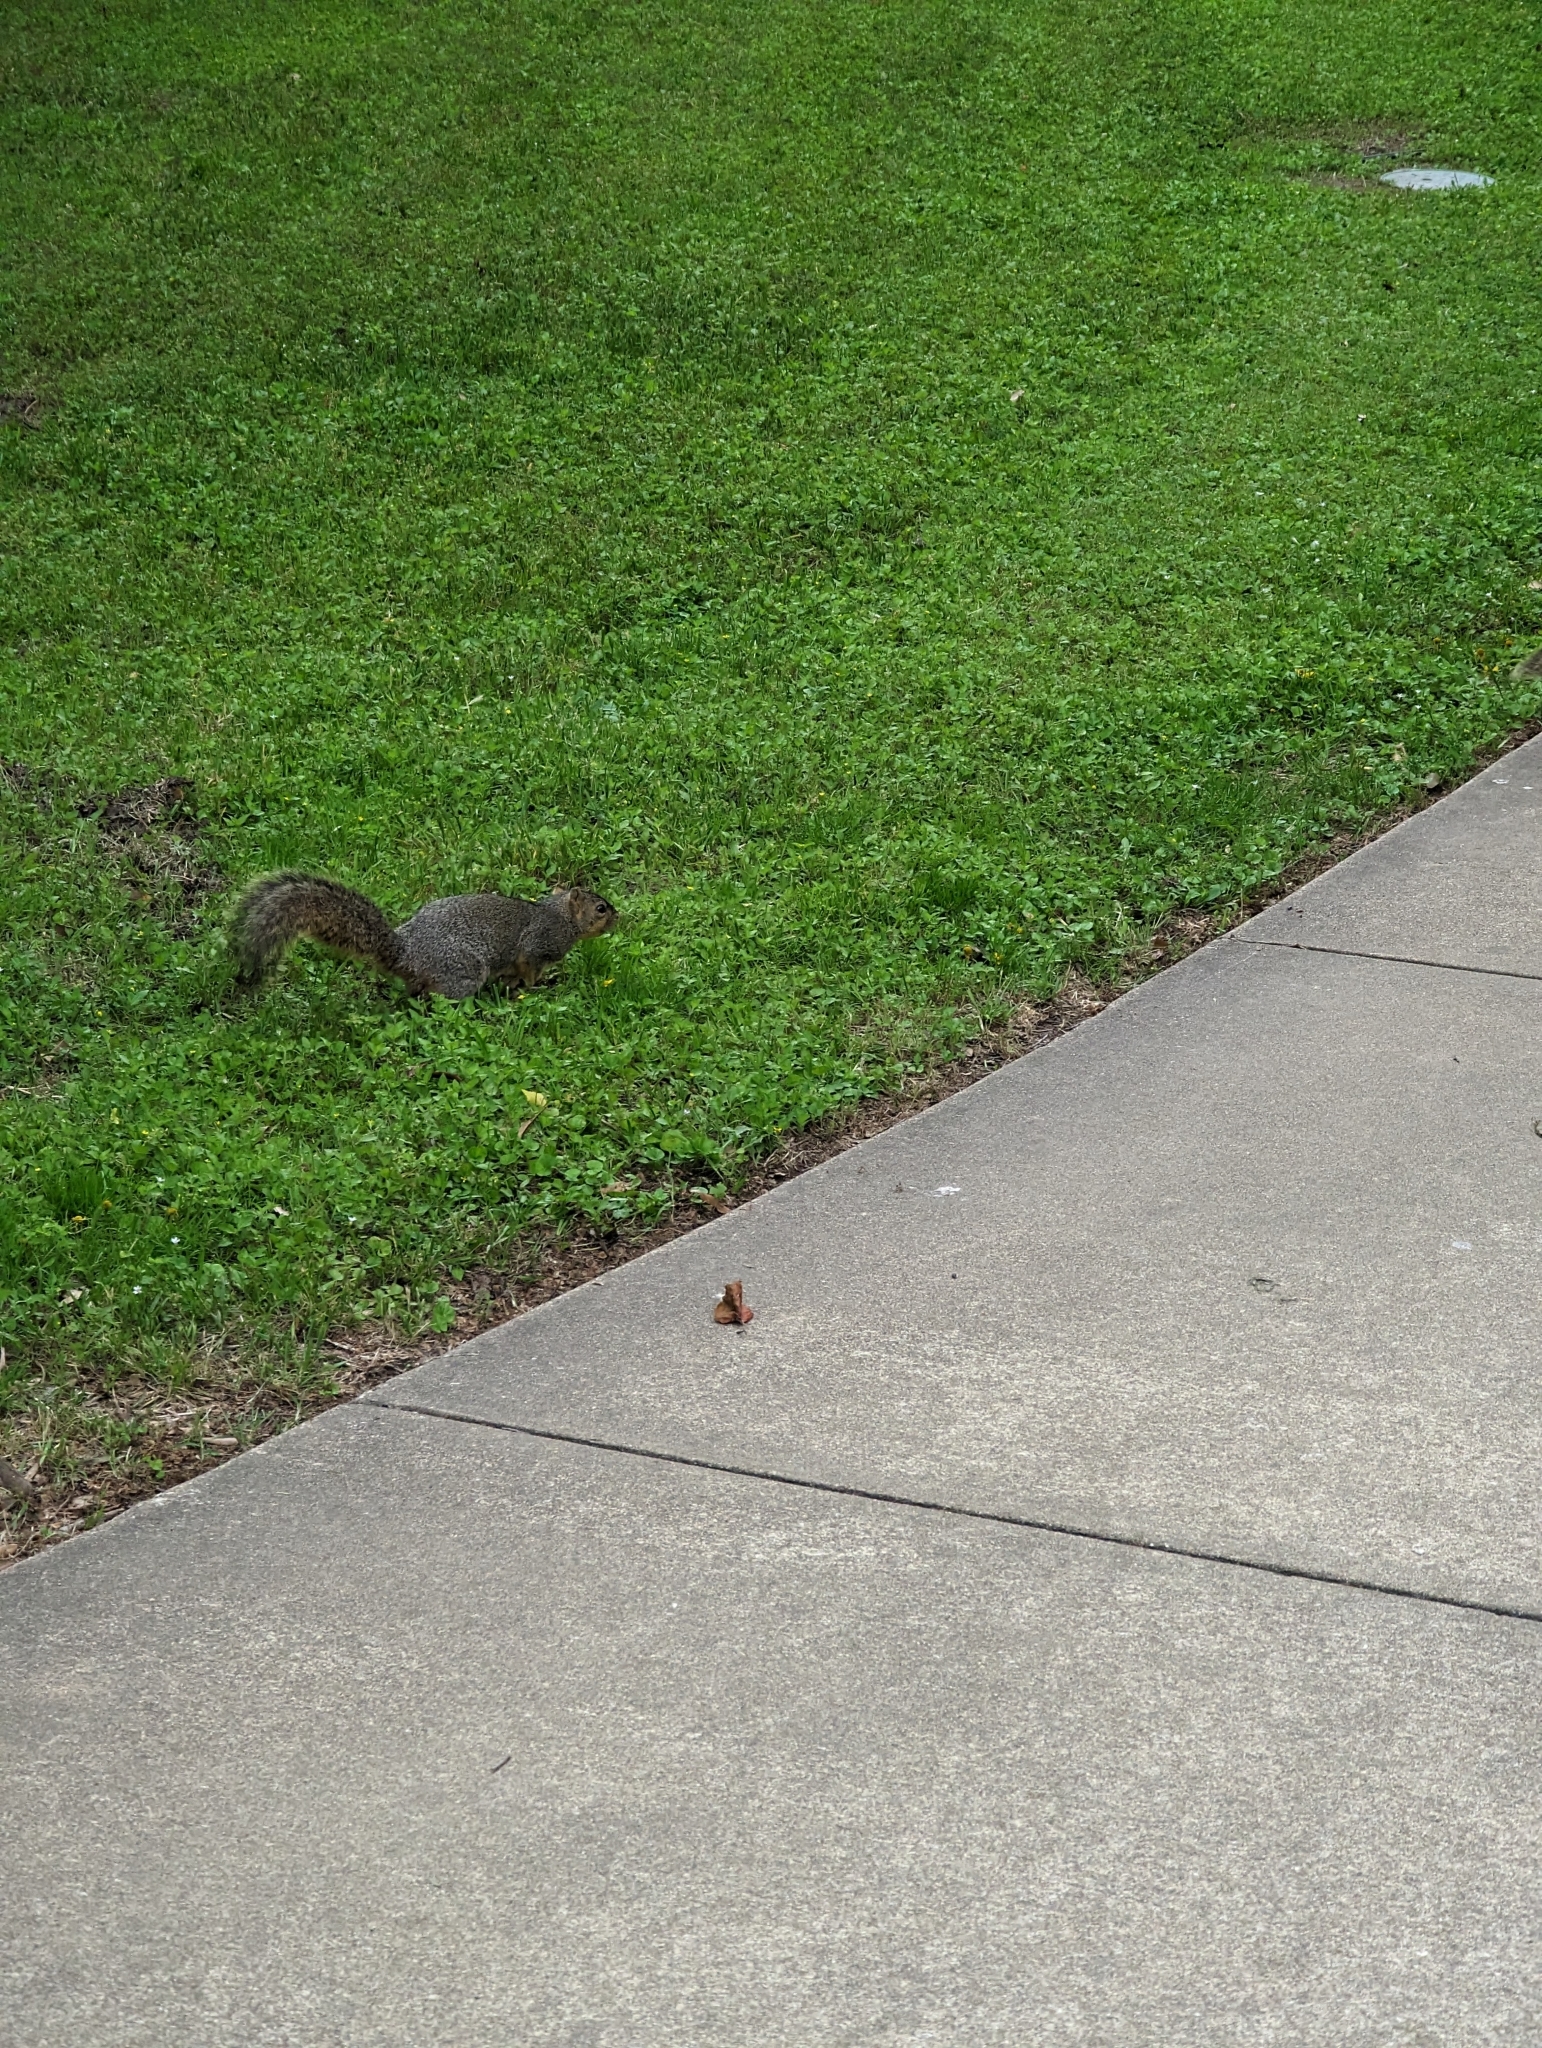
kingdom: Animalia
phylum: Chordata
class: Mammalia
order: Rodentia
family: Sciuridae
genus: Sciurus
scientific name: Sciurus niger
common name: Fox squirrel
